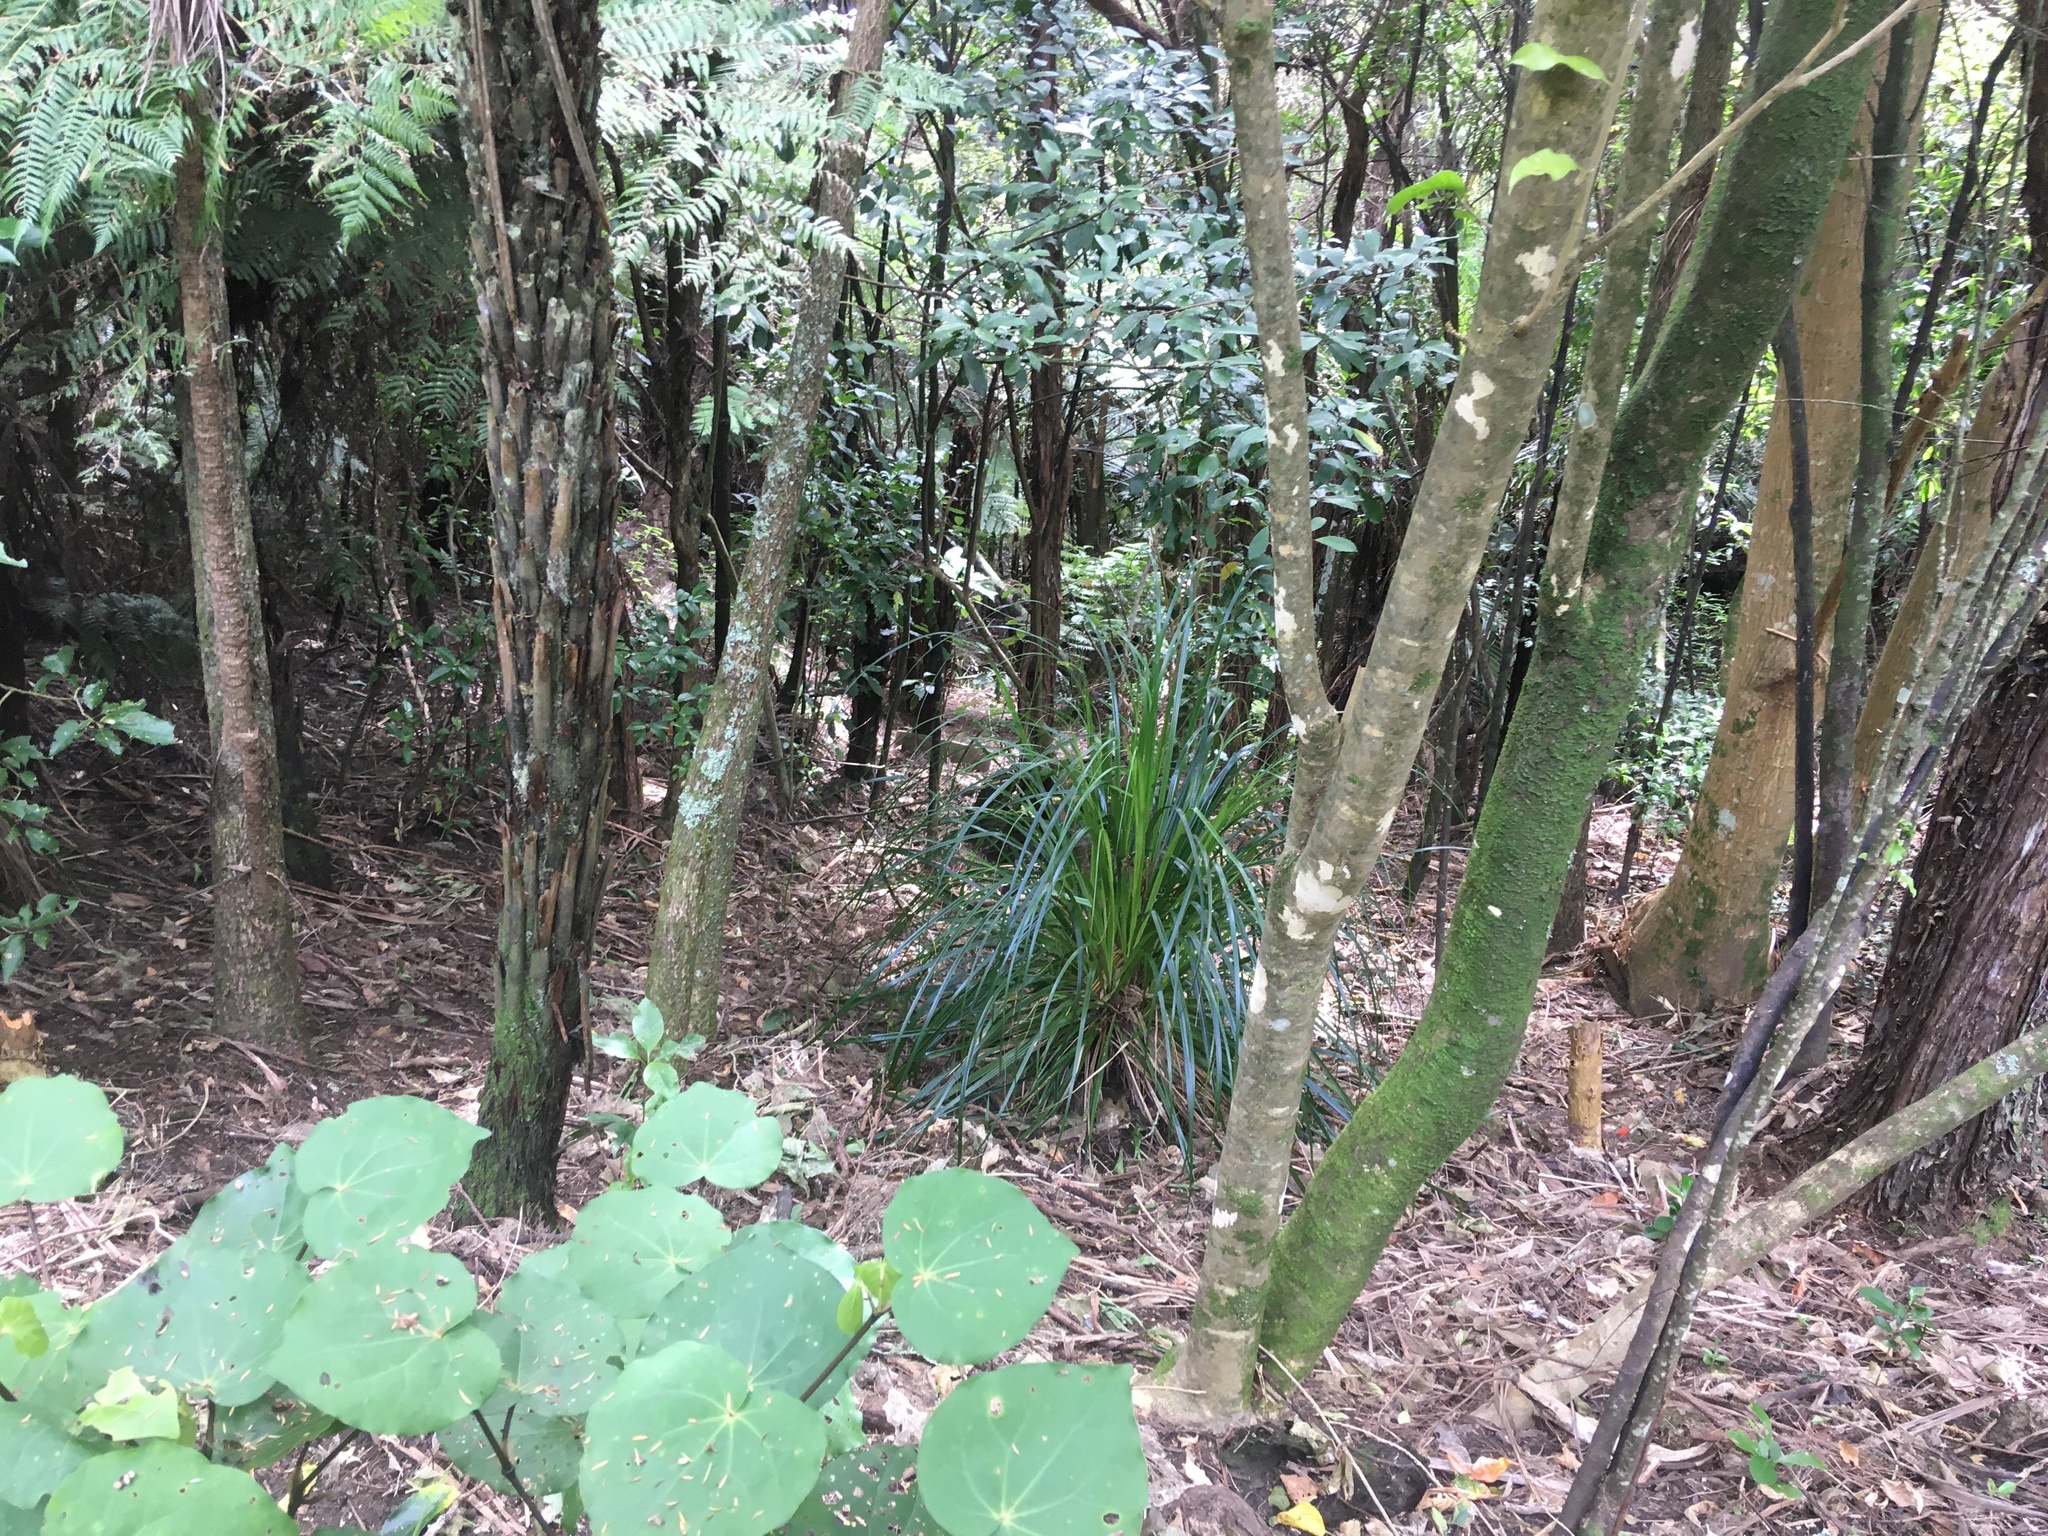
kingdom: Plantae
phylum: Tracheophyta
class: Liliopsida
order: Poales
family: Cyperaceae
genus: Gahnia
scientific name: Gahnia xanthocarpa
